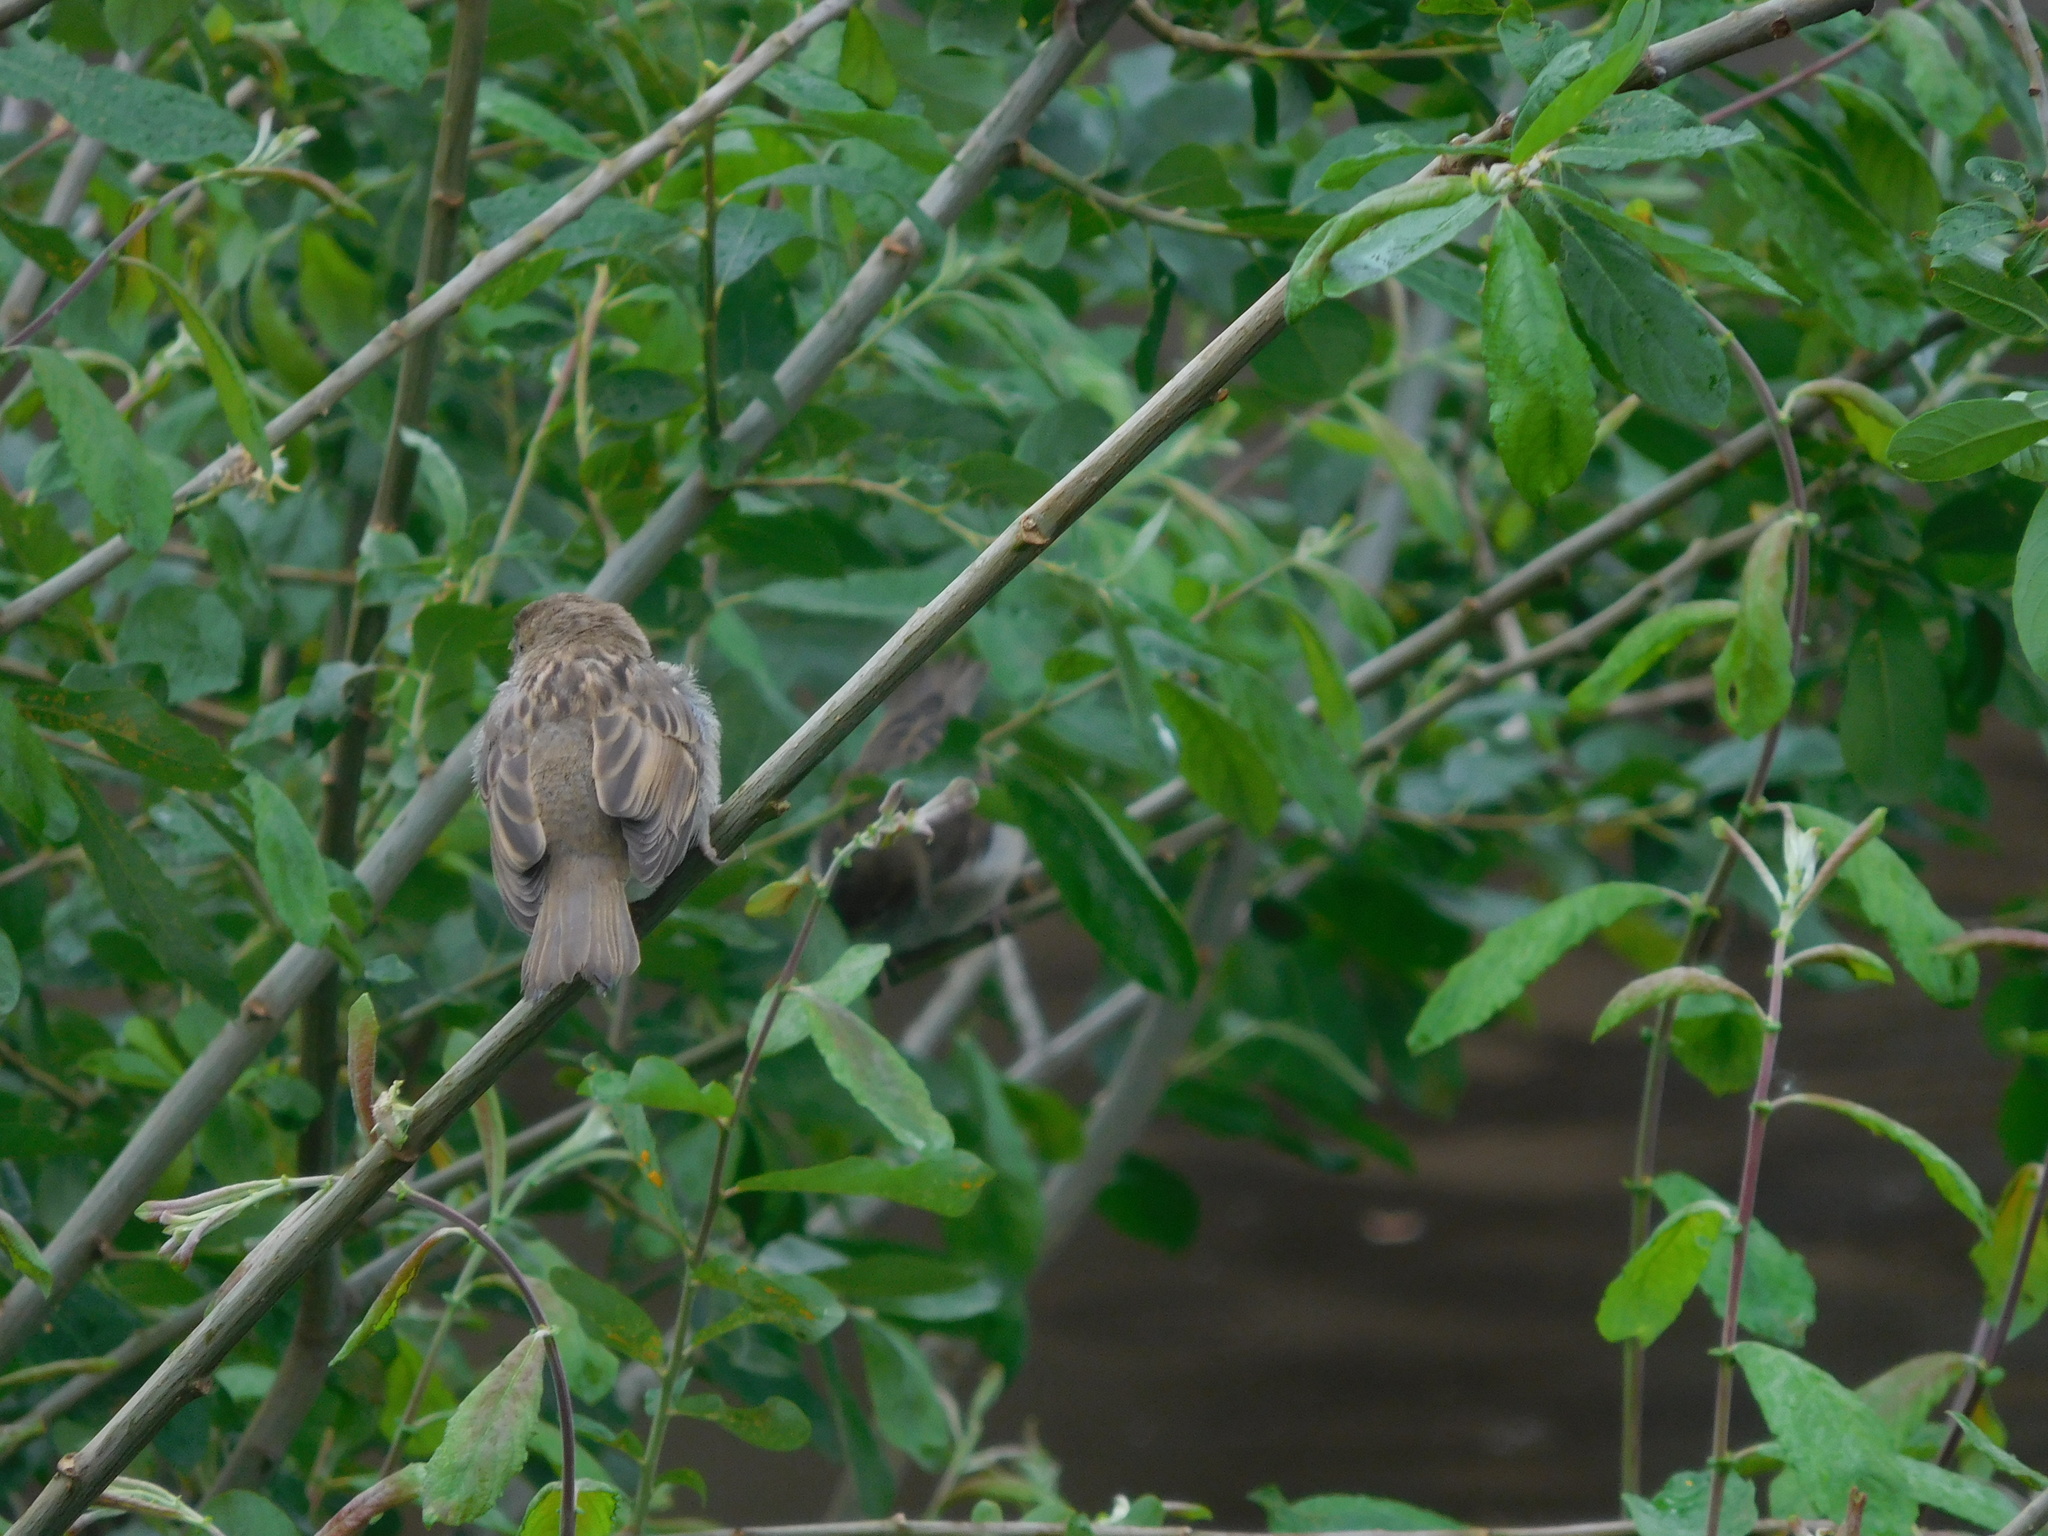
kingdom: Animalia
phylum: Chordata
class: Aves
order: Passeriformes
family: Passeridae
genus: Passer
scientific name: Passer domesticus
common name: House sparrow
